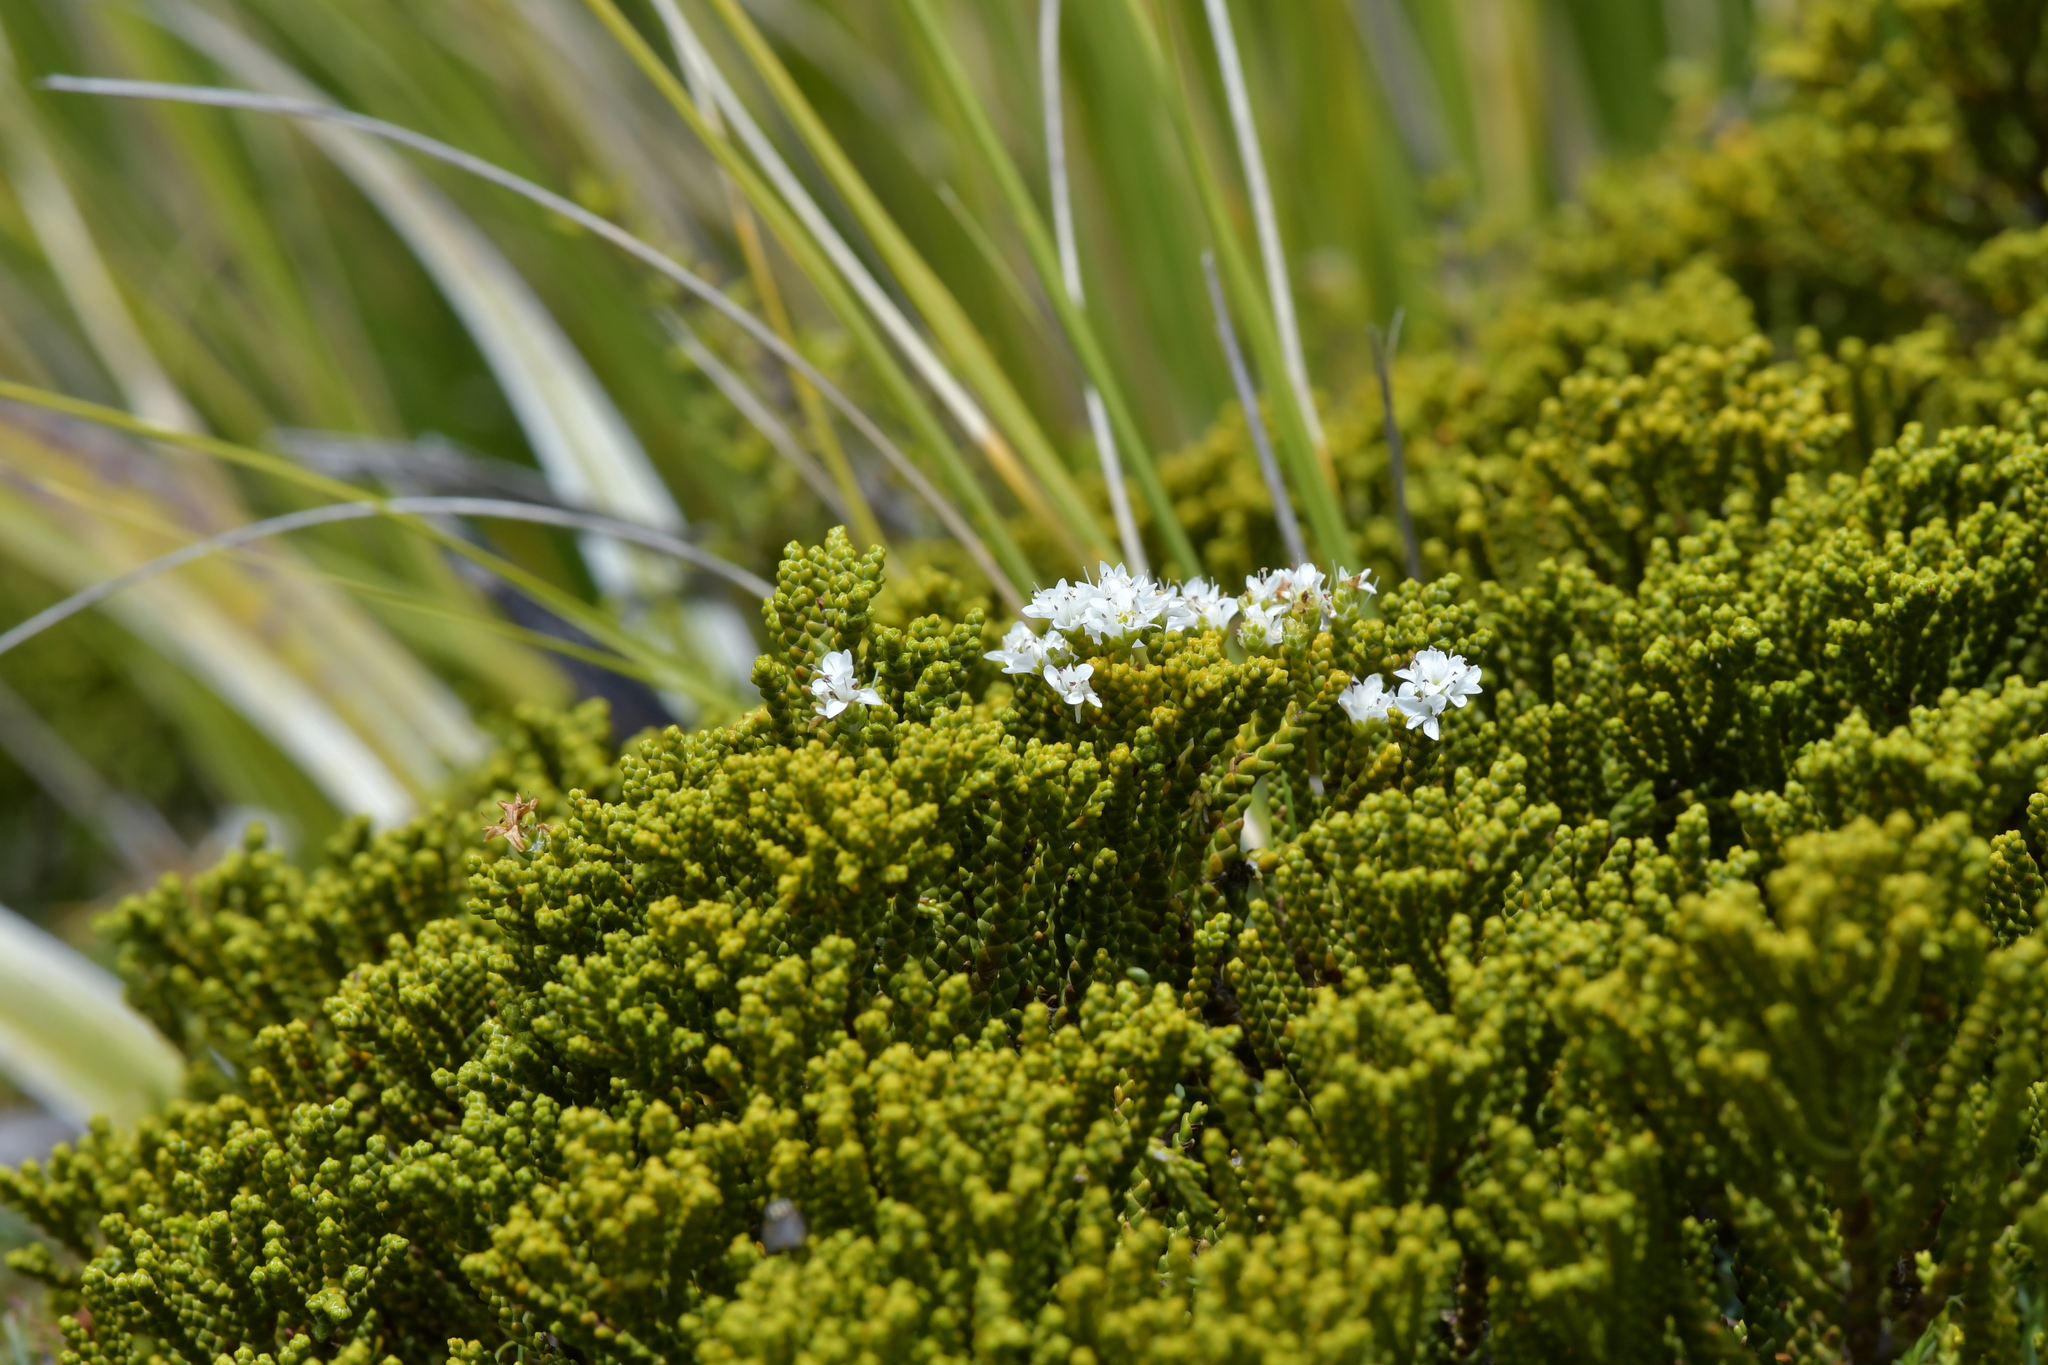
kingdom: Plantae
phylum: Tracheophyta
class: Magnoliopsida
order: Lamiales
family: Plantaginaceae
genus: Veronica
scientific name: Veronica tetragona
